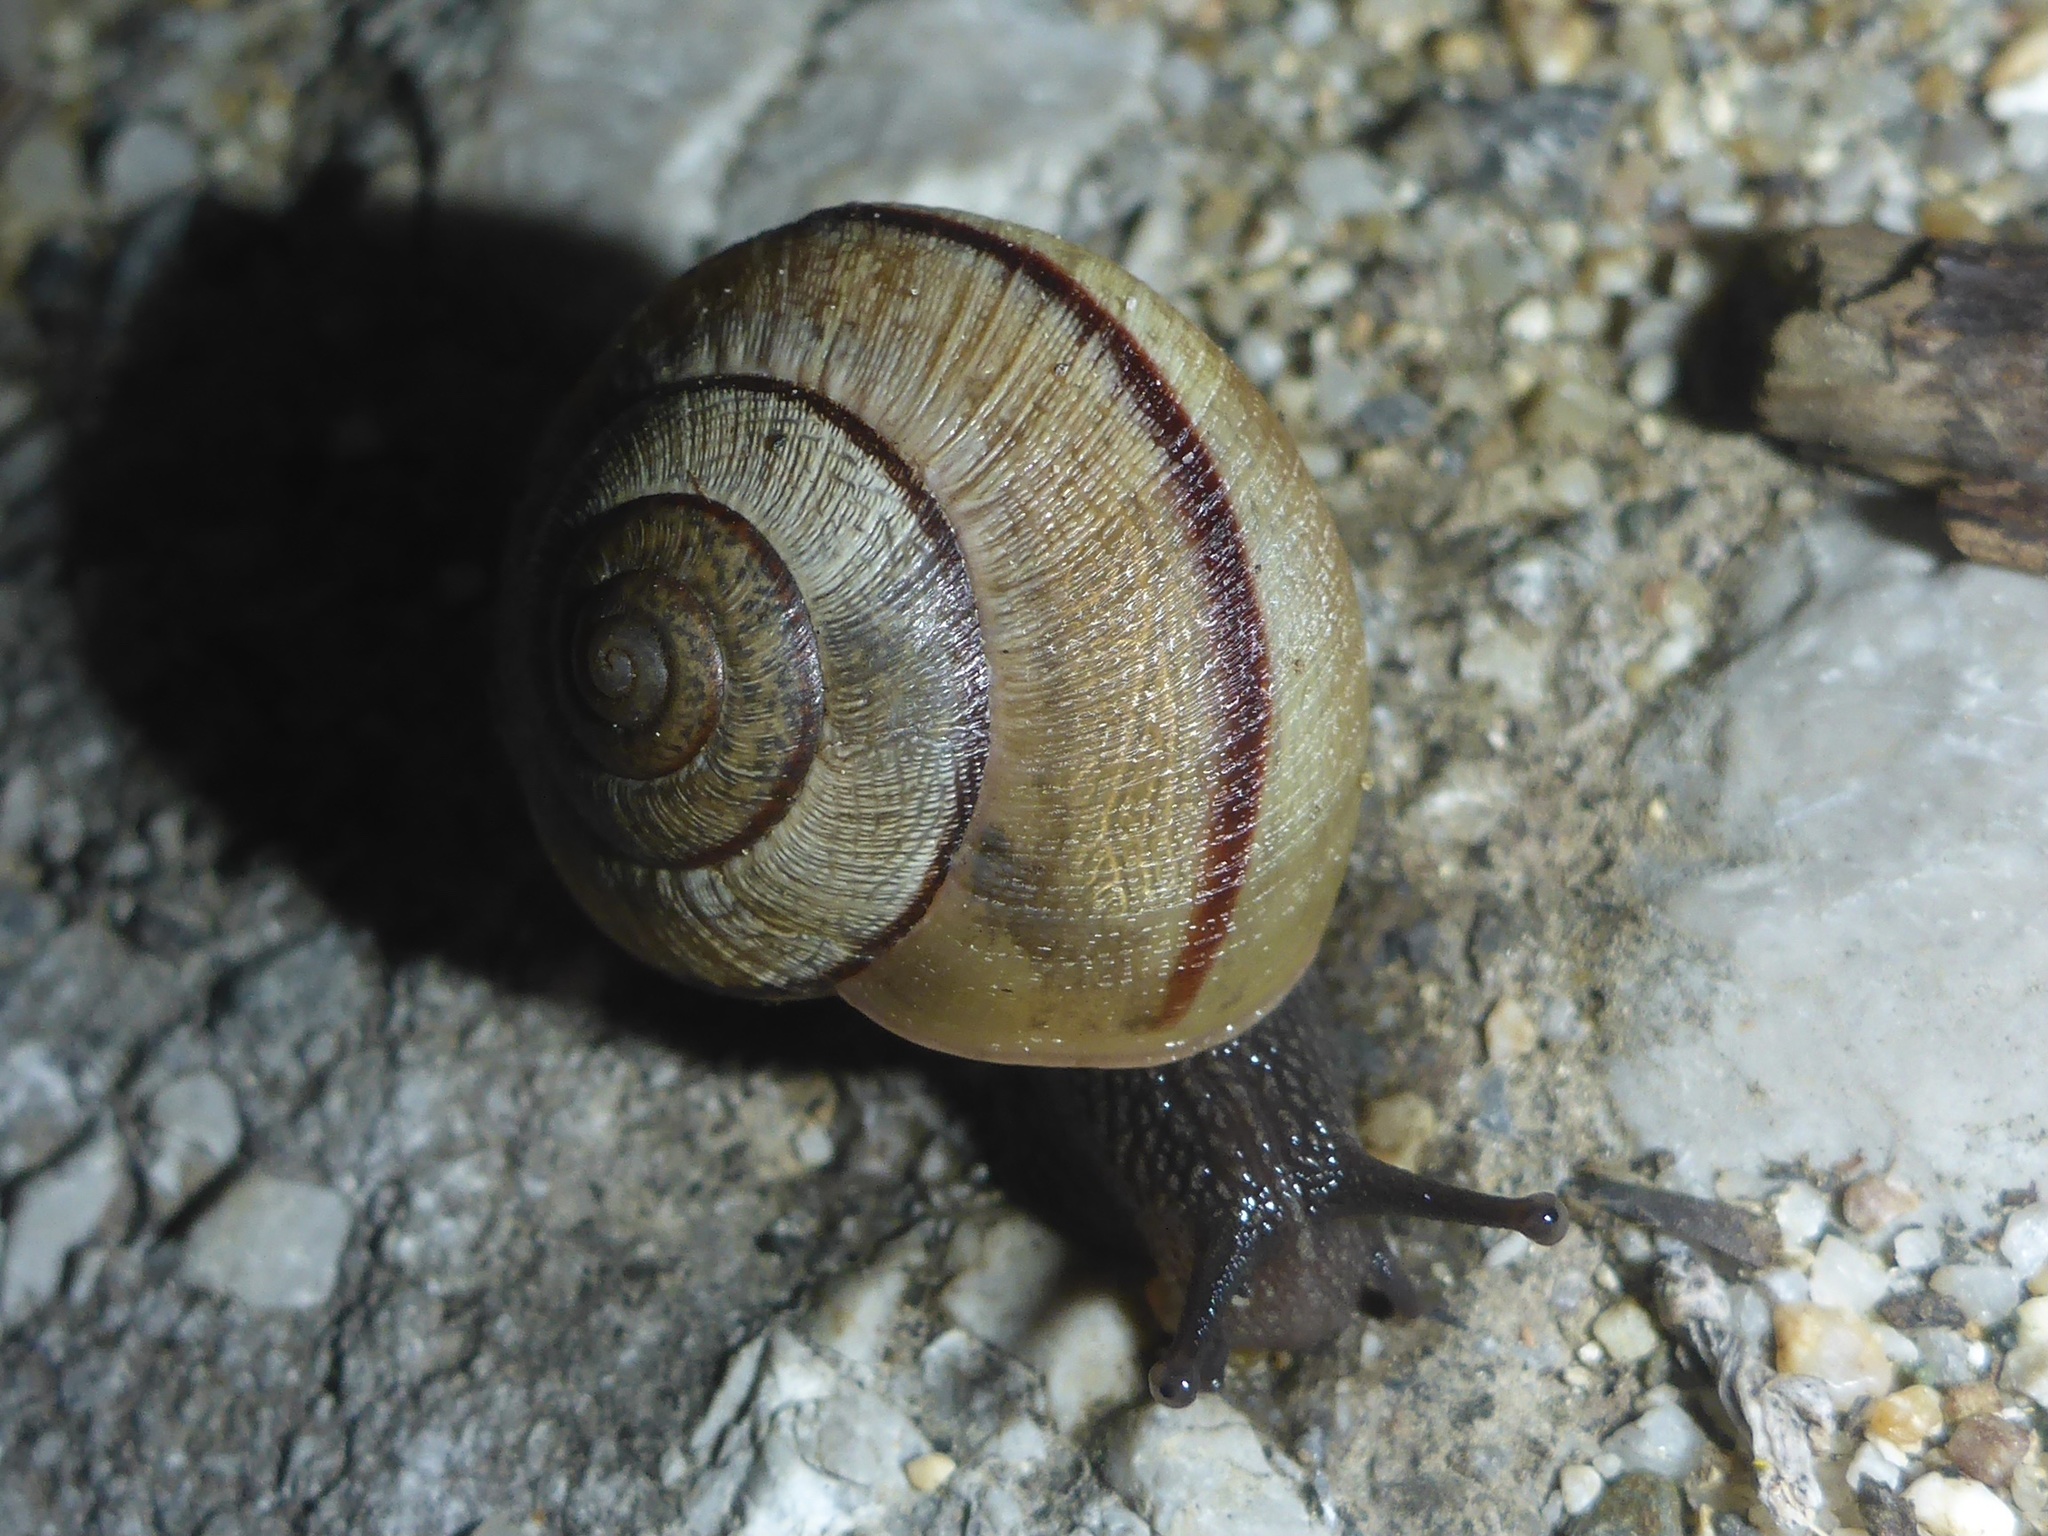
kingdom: Animalia
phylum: Mollusca
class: Gastropoda
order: Stylommatophora
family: Xanthonychidae
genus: Helminthoglypta
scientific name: Helminthoglypta nickliniana
